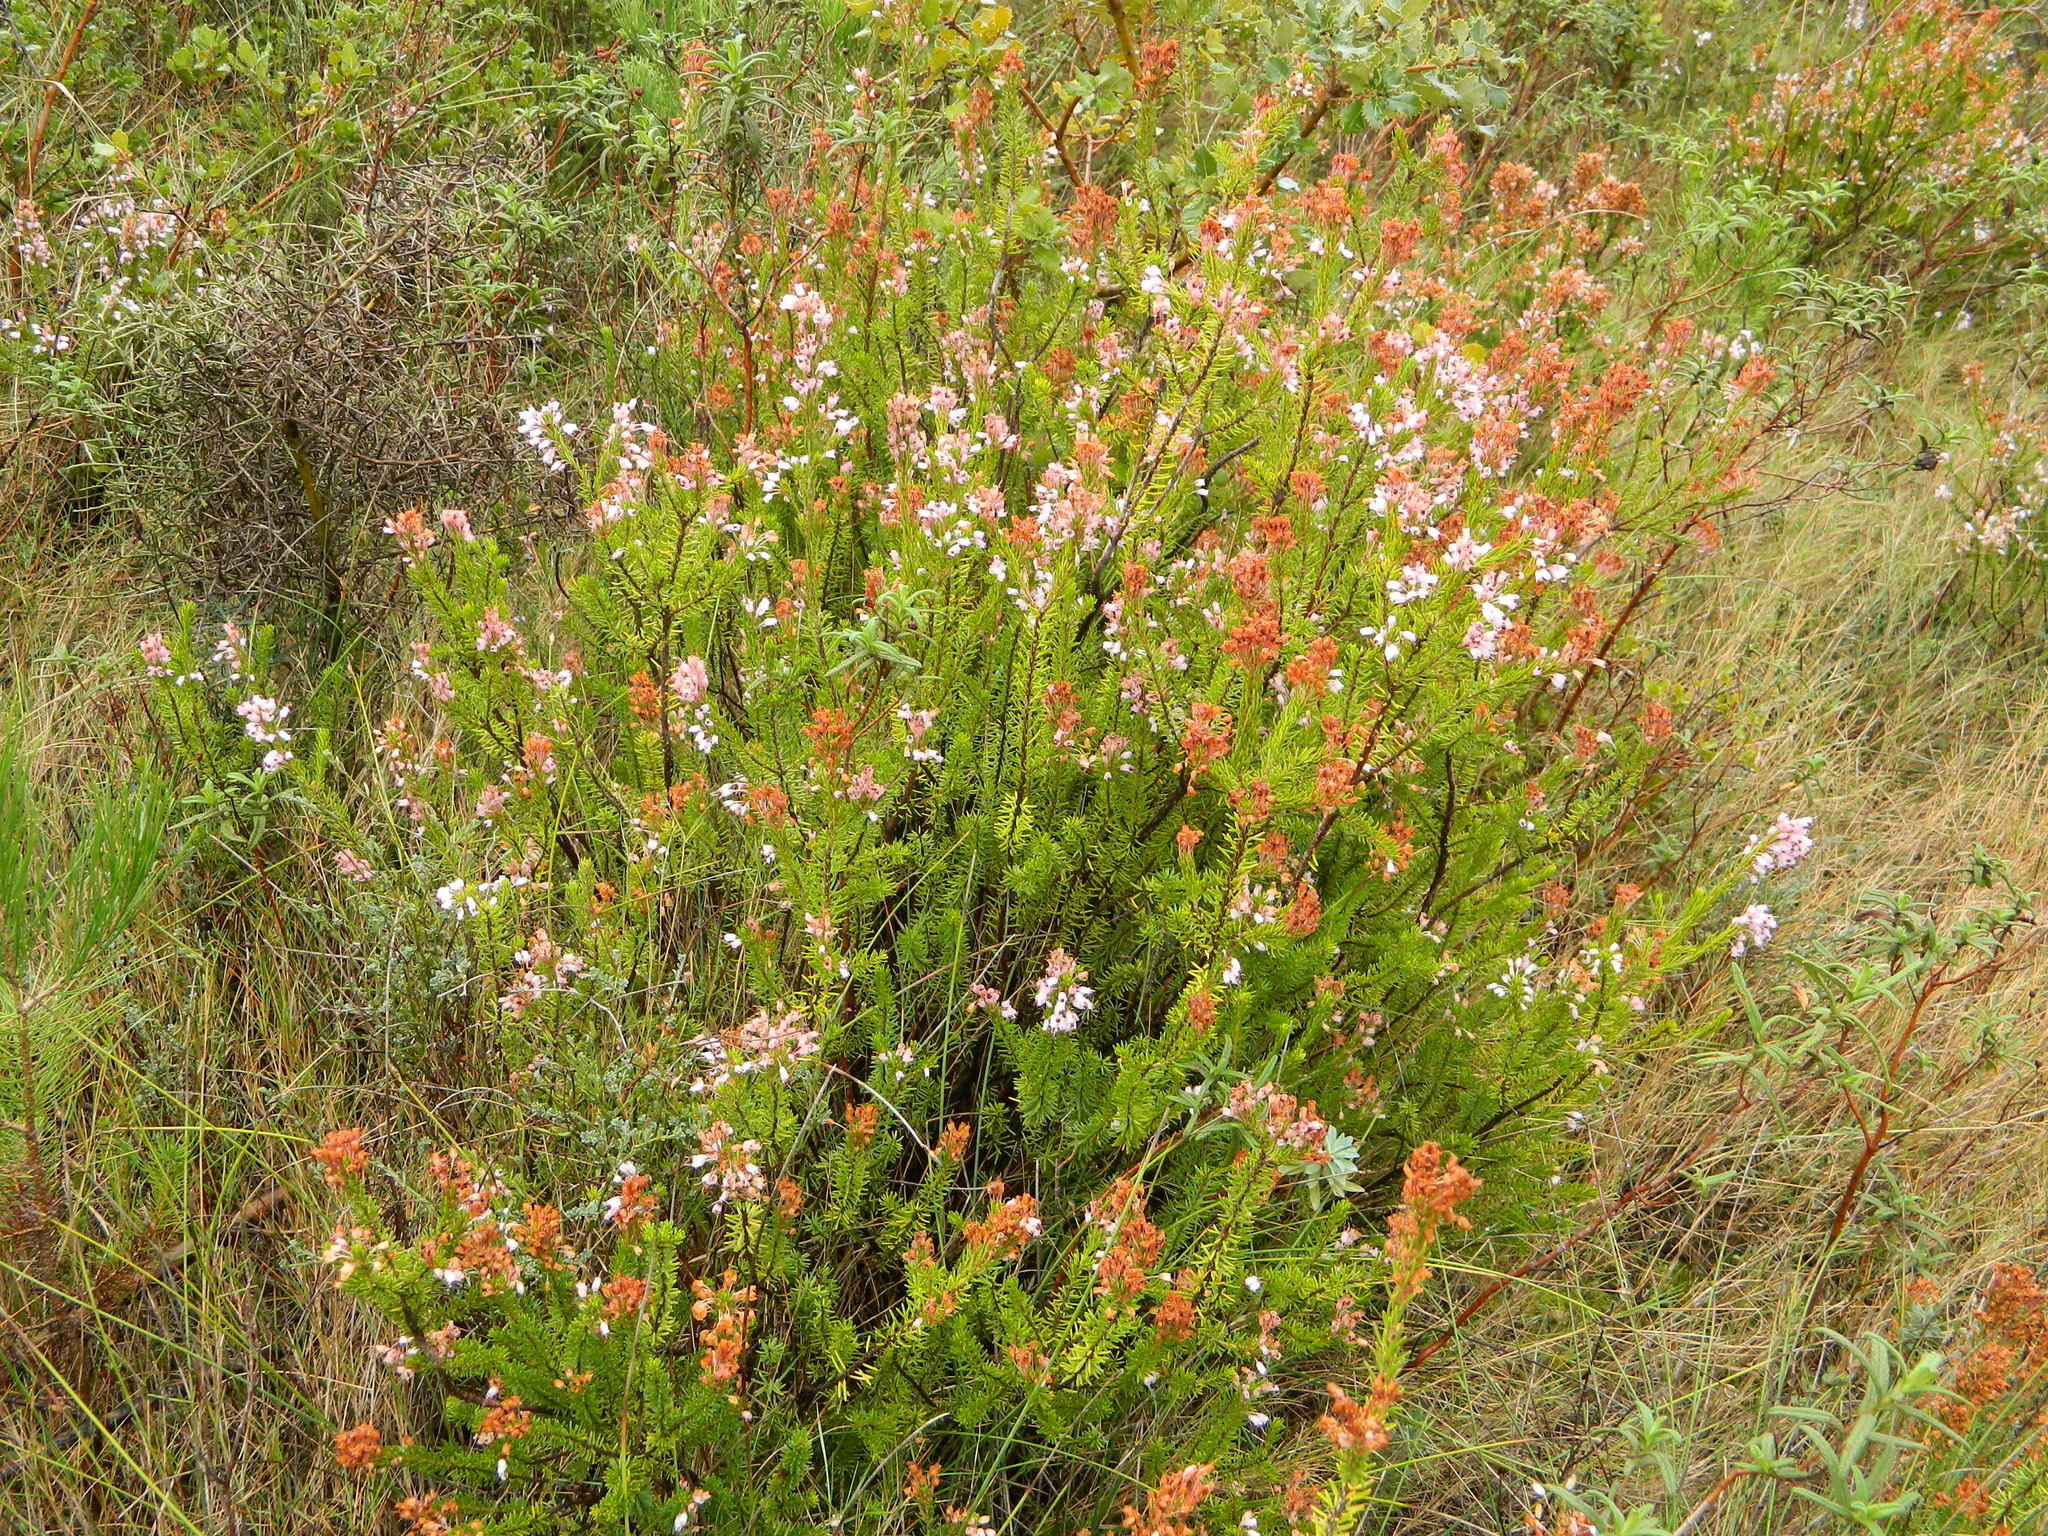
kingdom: Plantae
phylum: Tracheophyta
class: Magnoliopsida
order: Ericales
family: Ericaceae
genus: Erica
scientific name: Erica multiflora
